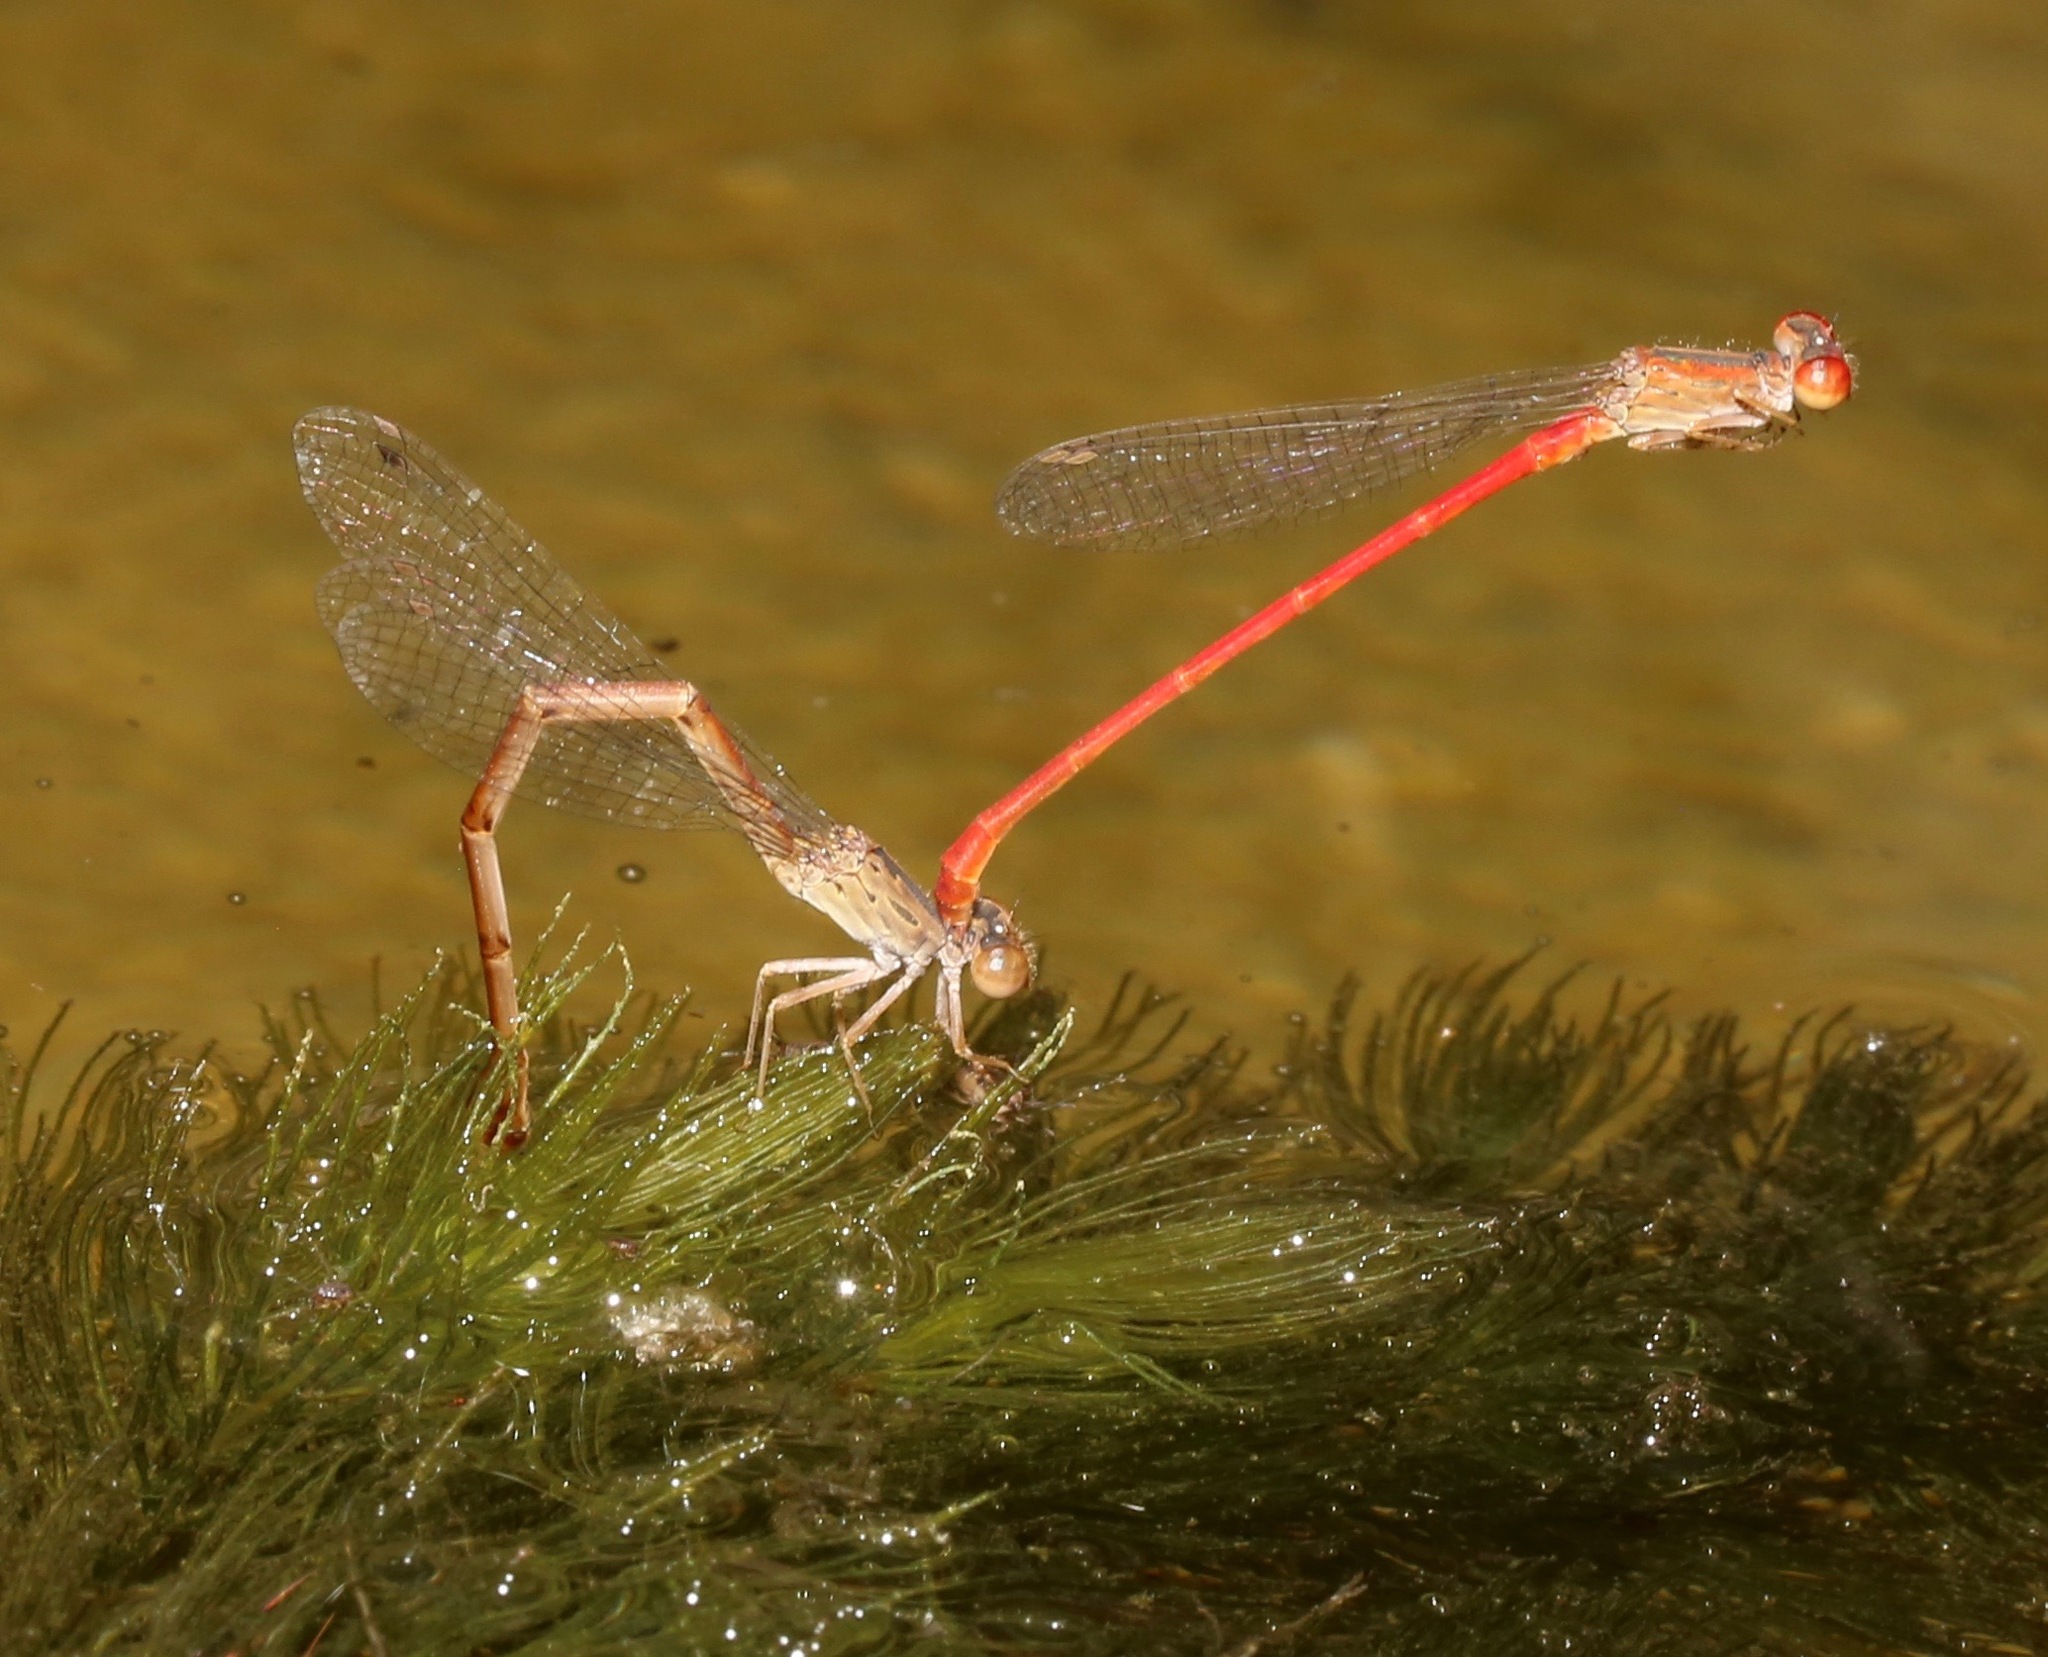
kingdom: Animalia
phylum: Arthropoda
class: Insecta
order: Odonata
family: Coenagrionidae
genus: Telebasis
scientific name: Telebasis salva
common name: Desert firetail
